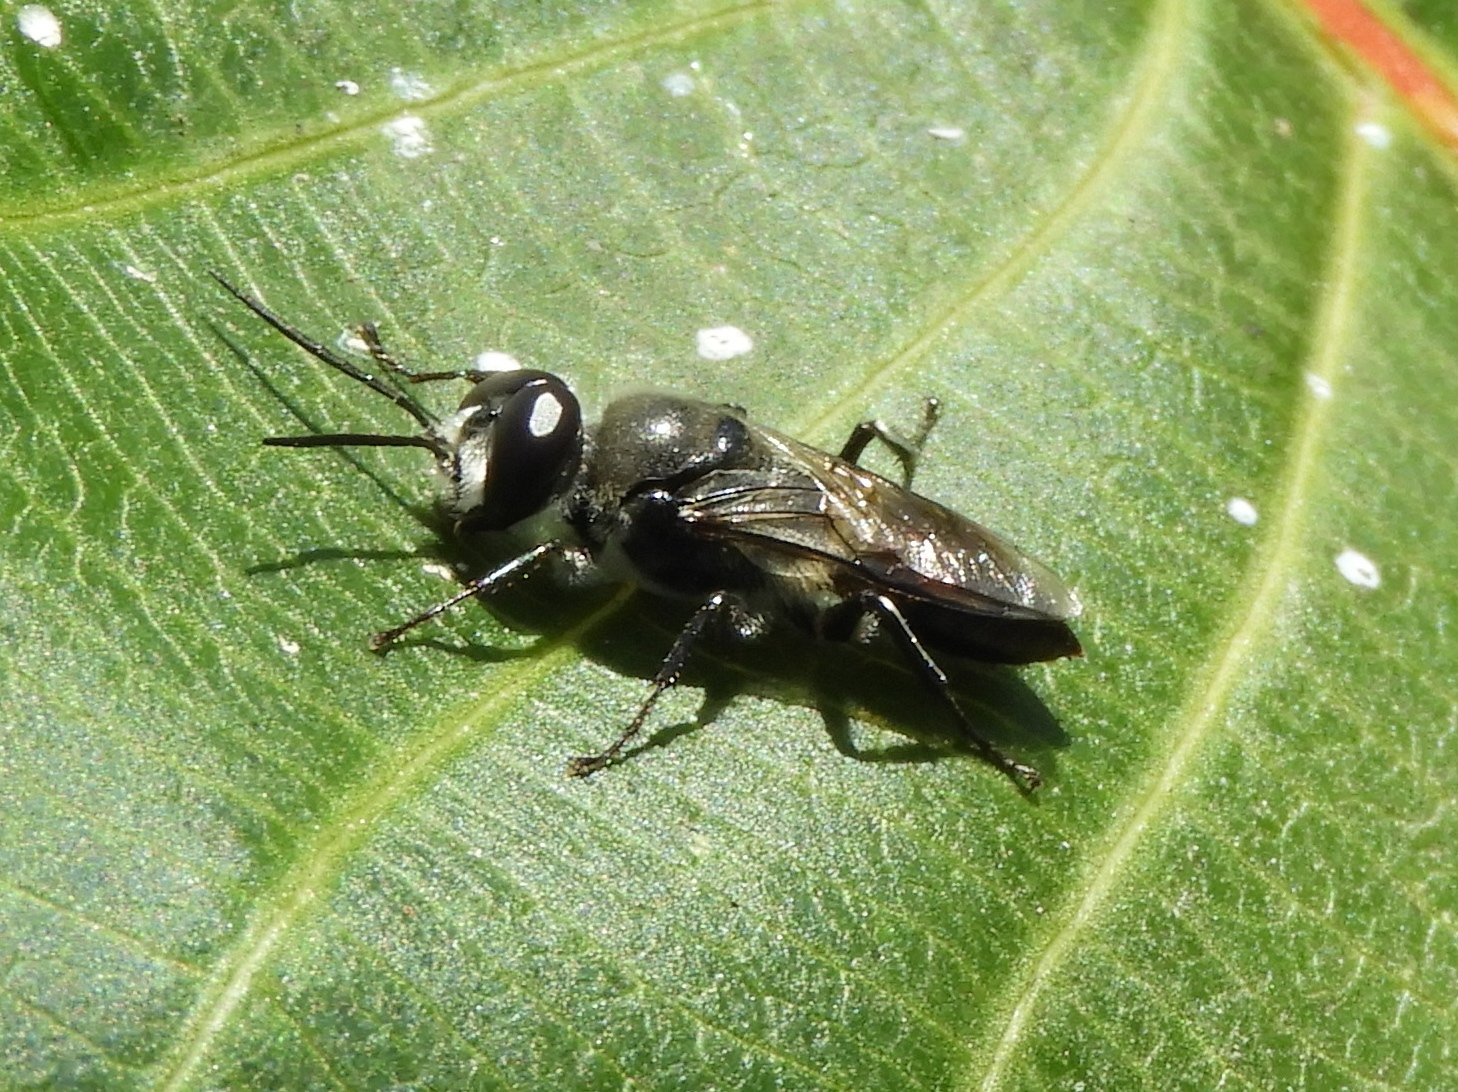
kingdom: Animalia
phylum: Arthropoda
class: Insecta
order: Hymenoptera
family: Crabronidae
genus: Astata
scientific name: Astata
